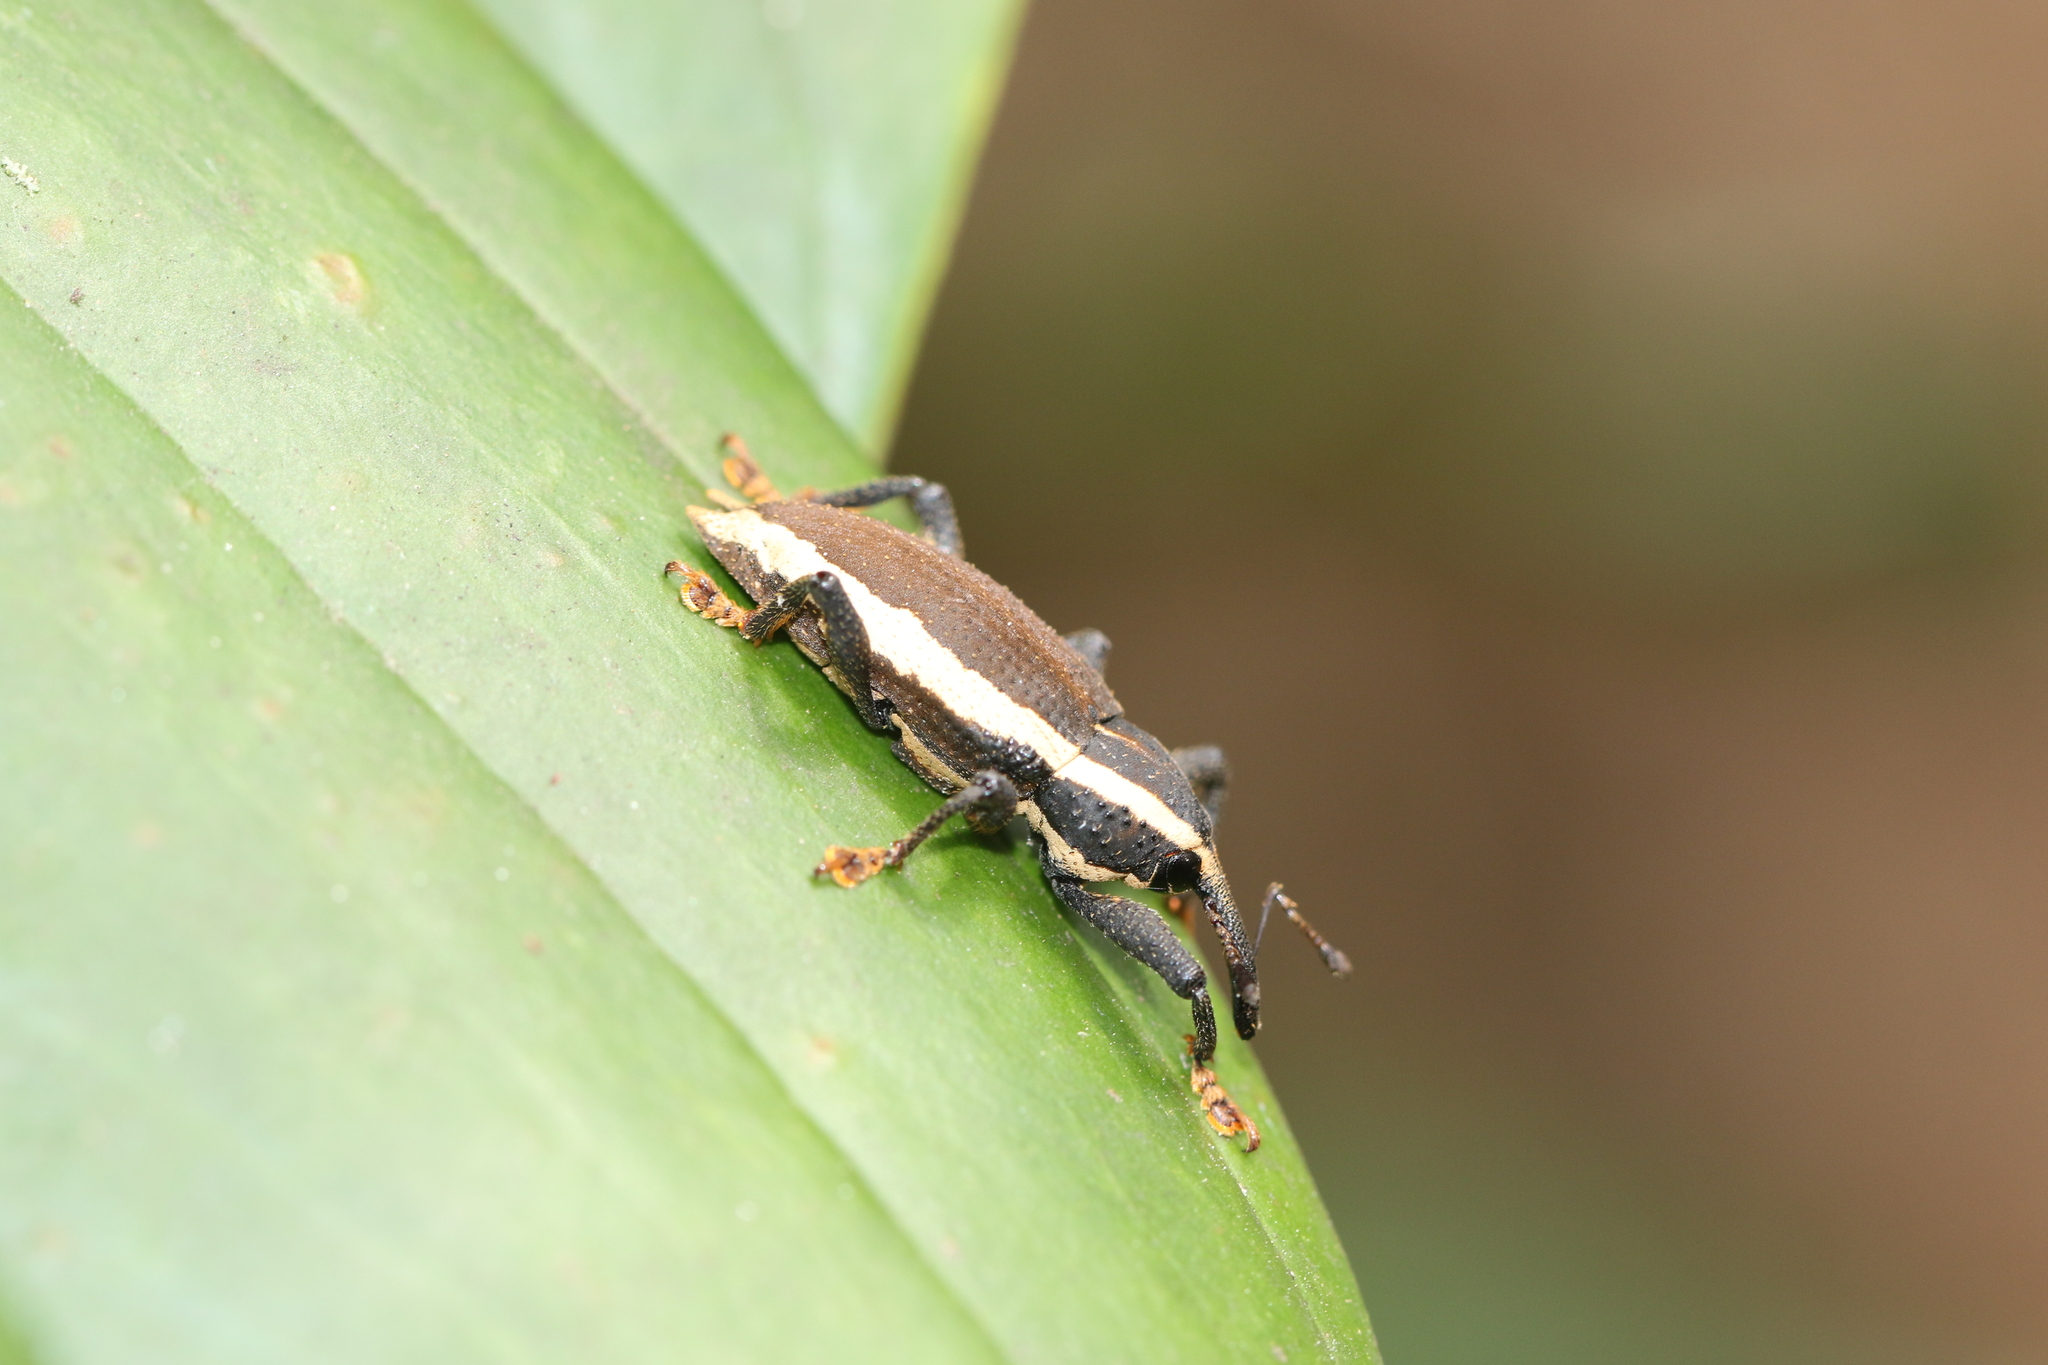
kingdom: Animalia
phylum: Arthropoda
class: Insecta
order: Coleoptera
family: Curculionidae
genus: Odontoderes
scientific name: Odontoderes zetterstedti
